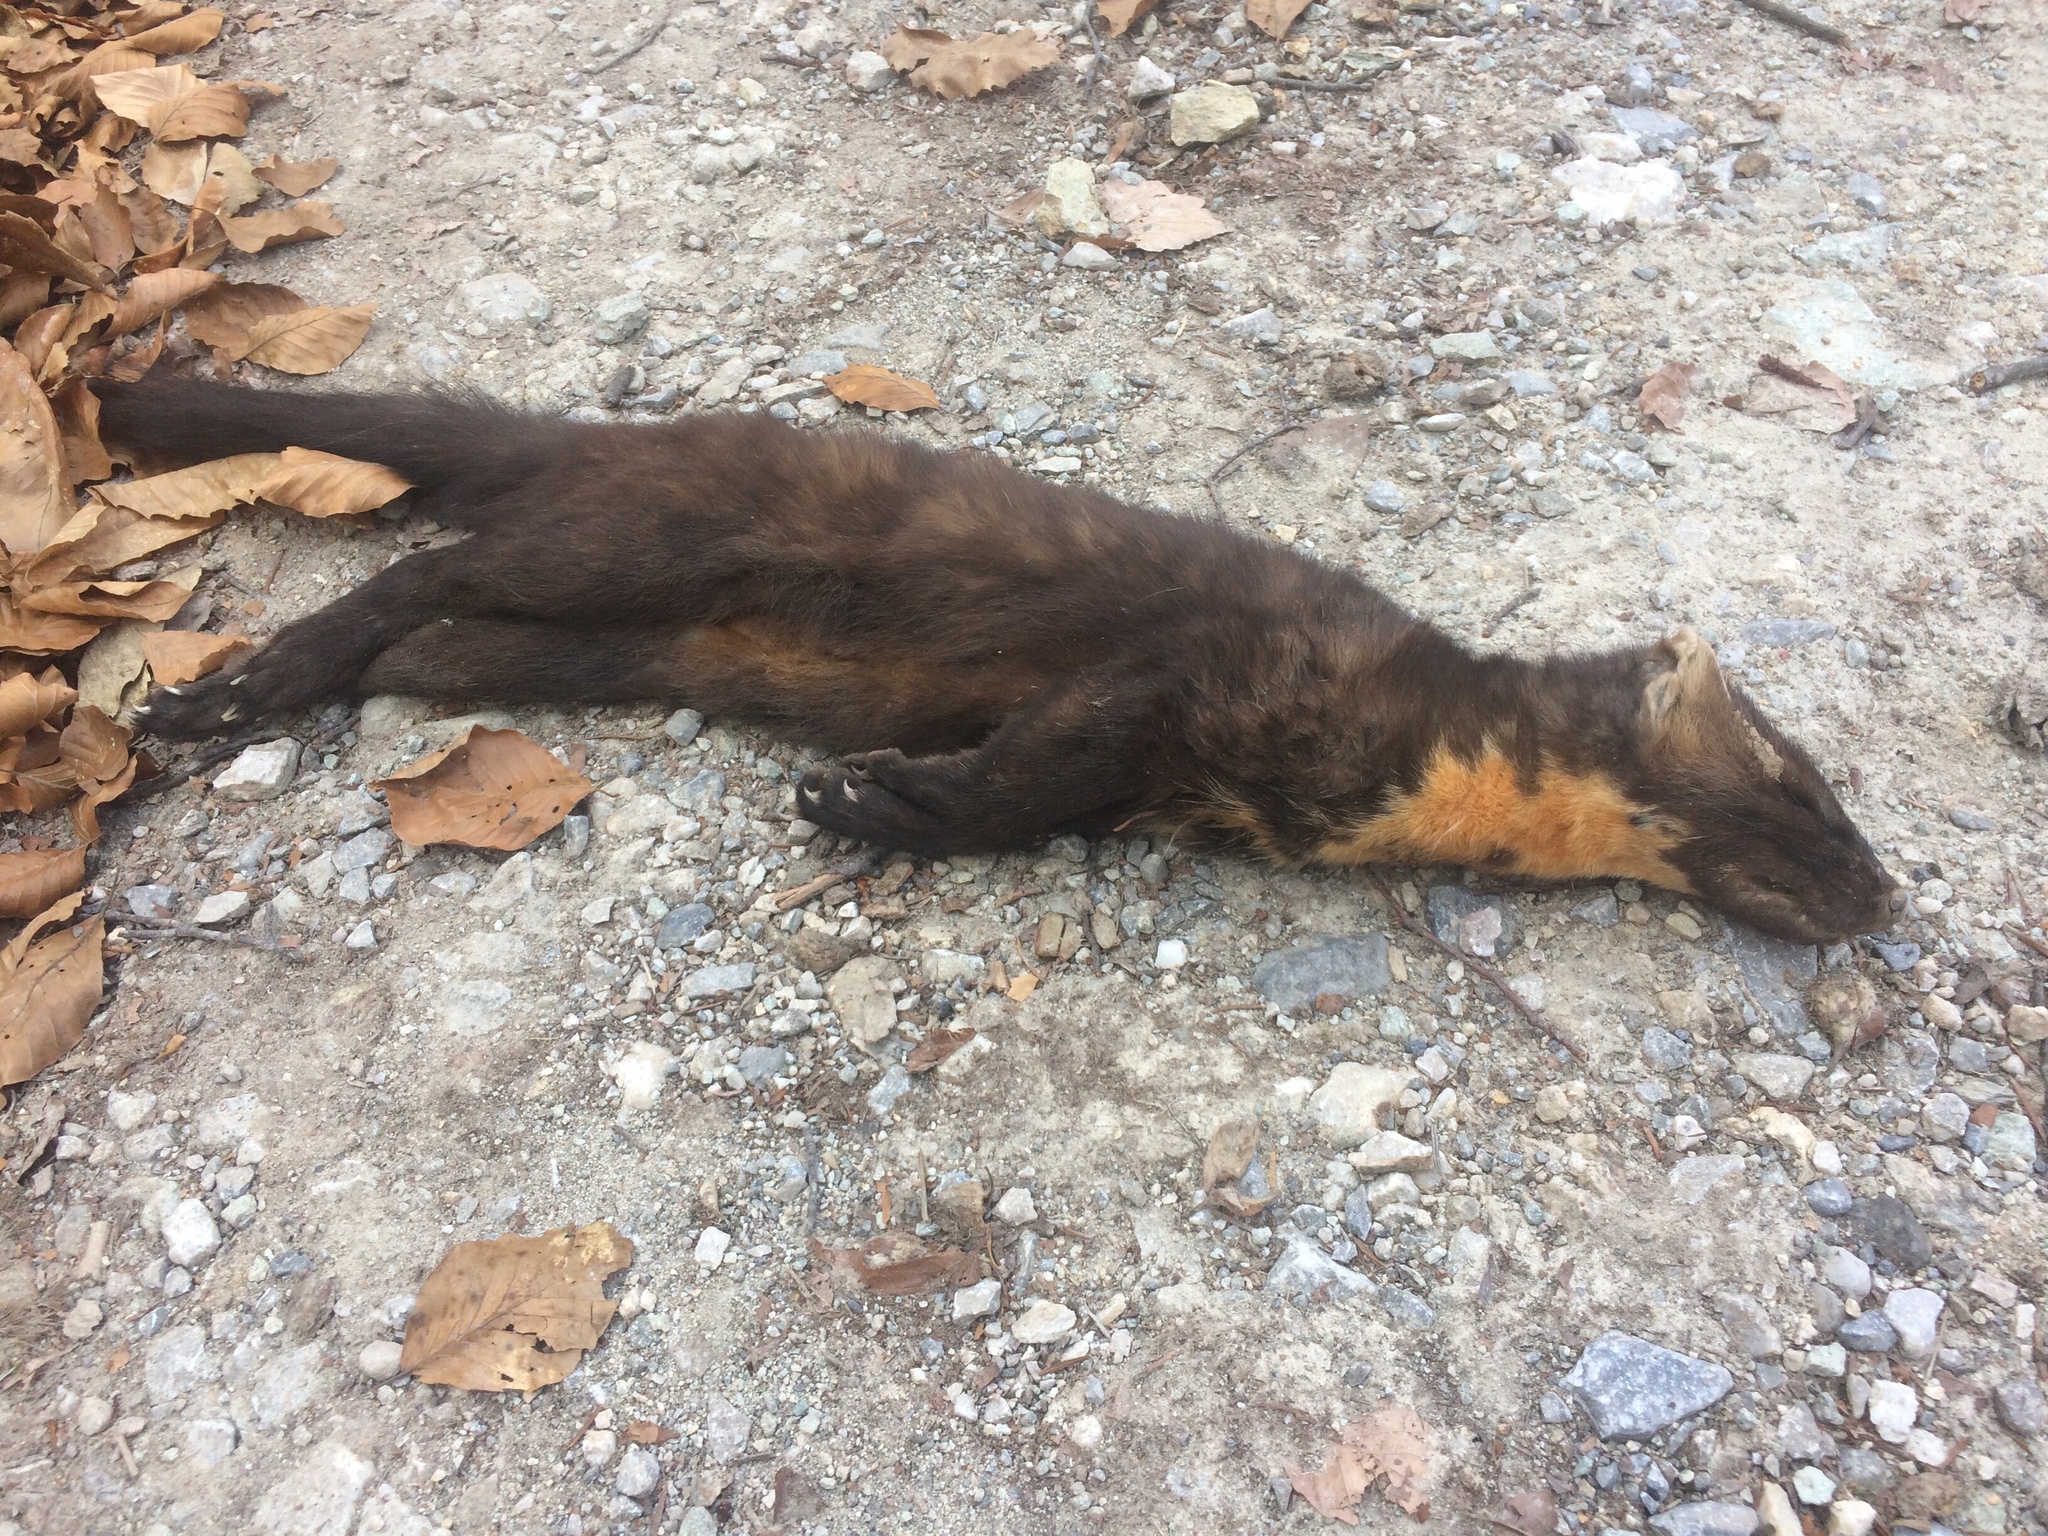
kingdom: Animalia
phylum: Chordata
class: Mammalia
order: Carnivora
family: Mustelidae
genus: Martes
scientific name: Martes martes
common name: European pine marten
